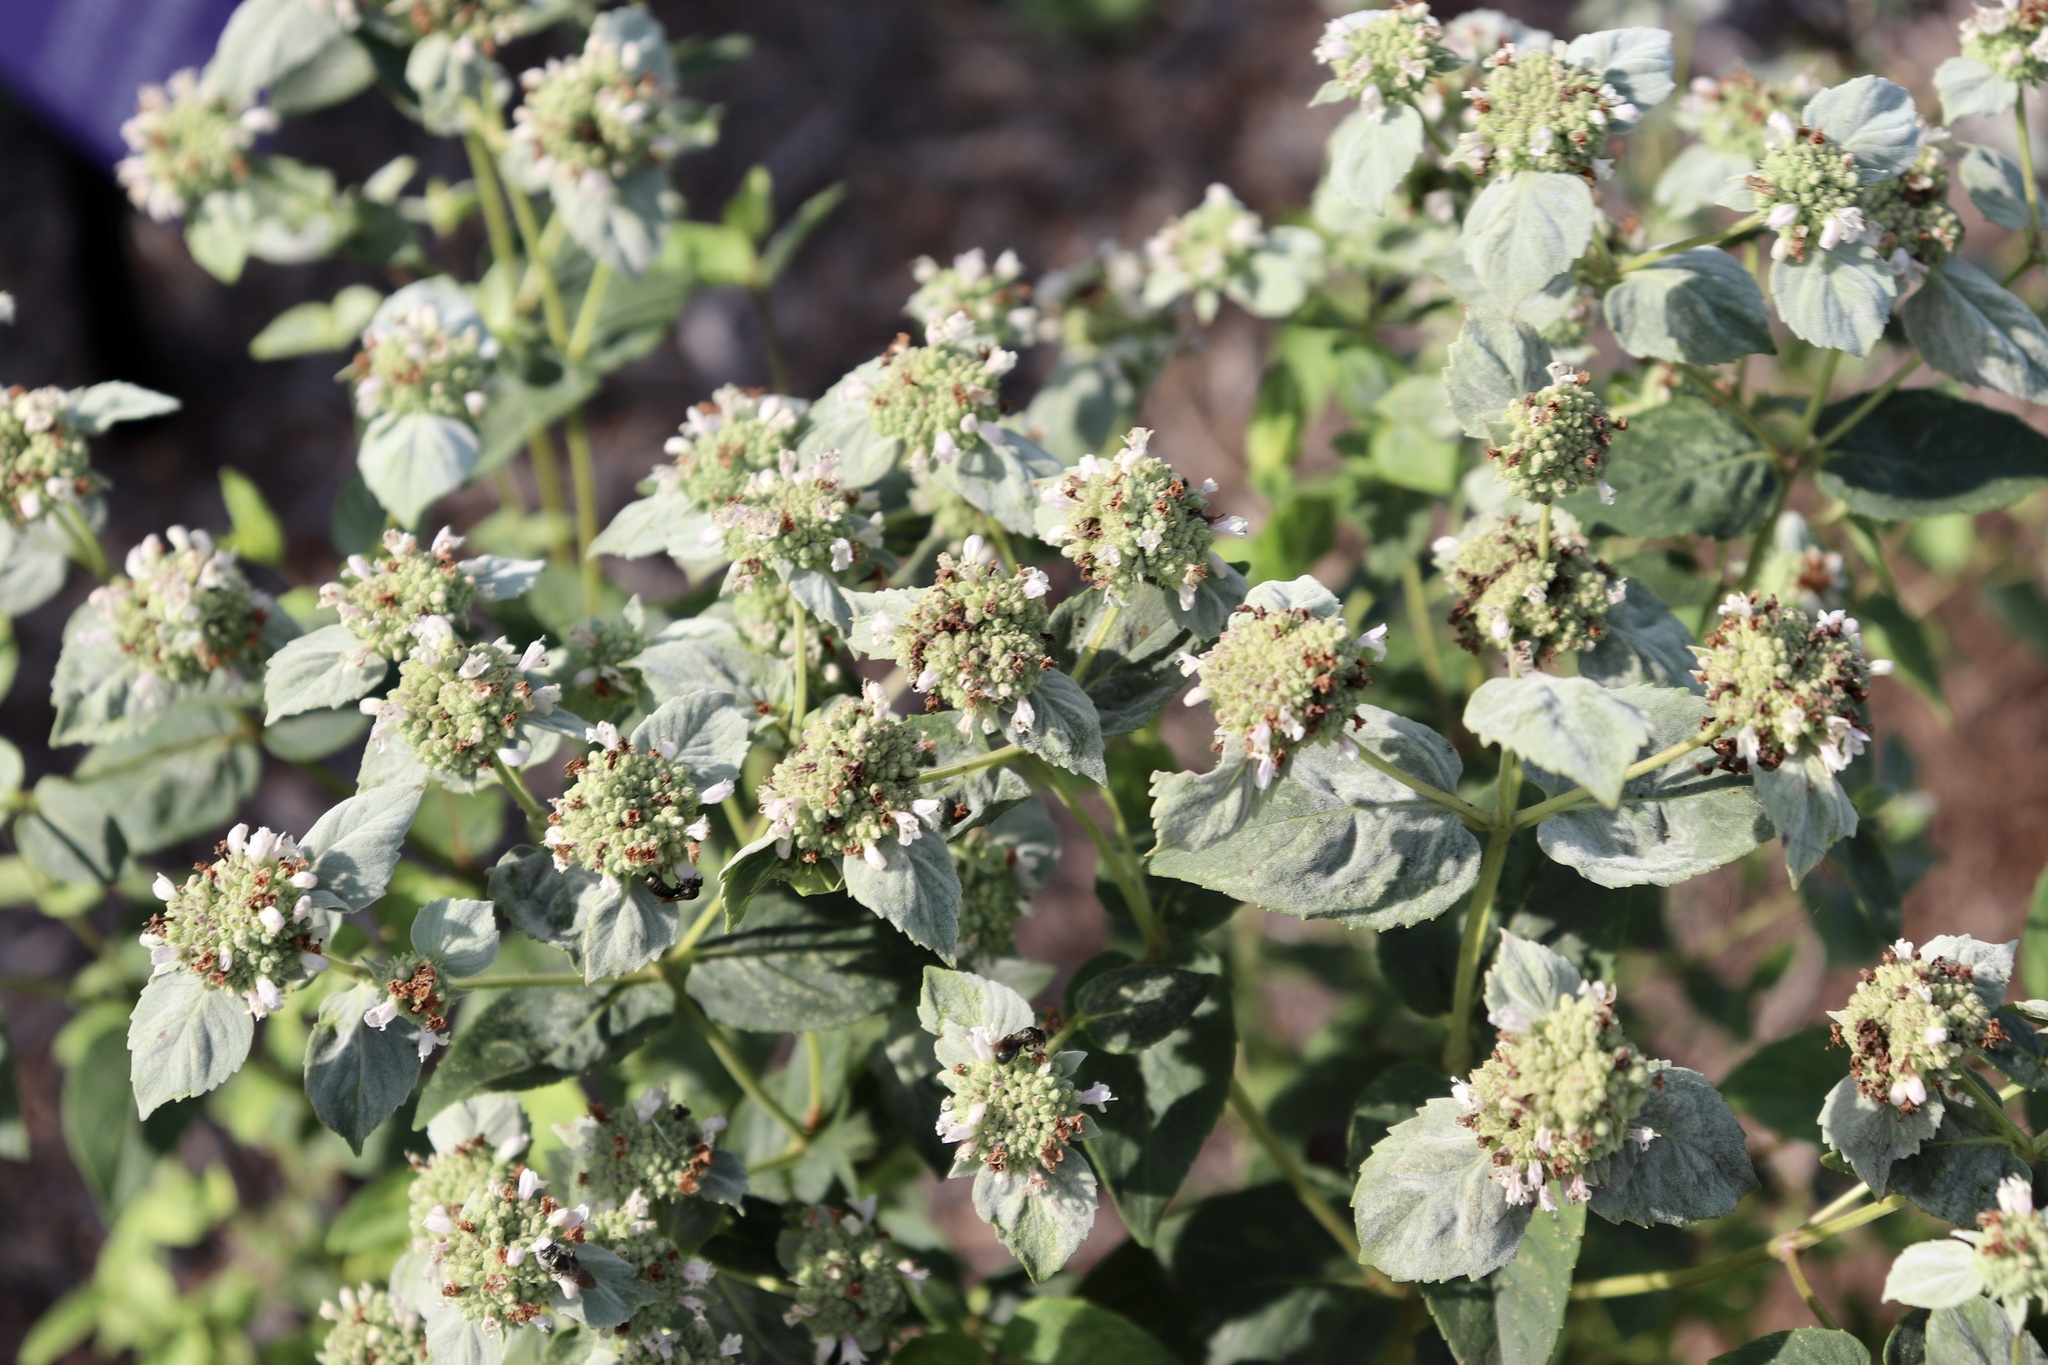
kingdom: Plantae
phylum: Tracheophyta
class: Magnoliopsida
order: Lamiales
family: Lamiaceae
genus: Pycnanthemum
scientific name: Pycnanthemum muticum
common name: Blunt mountain-mint
